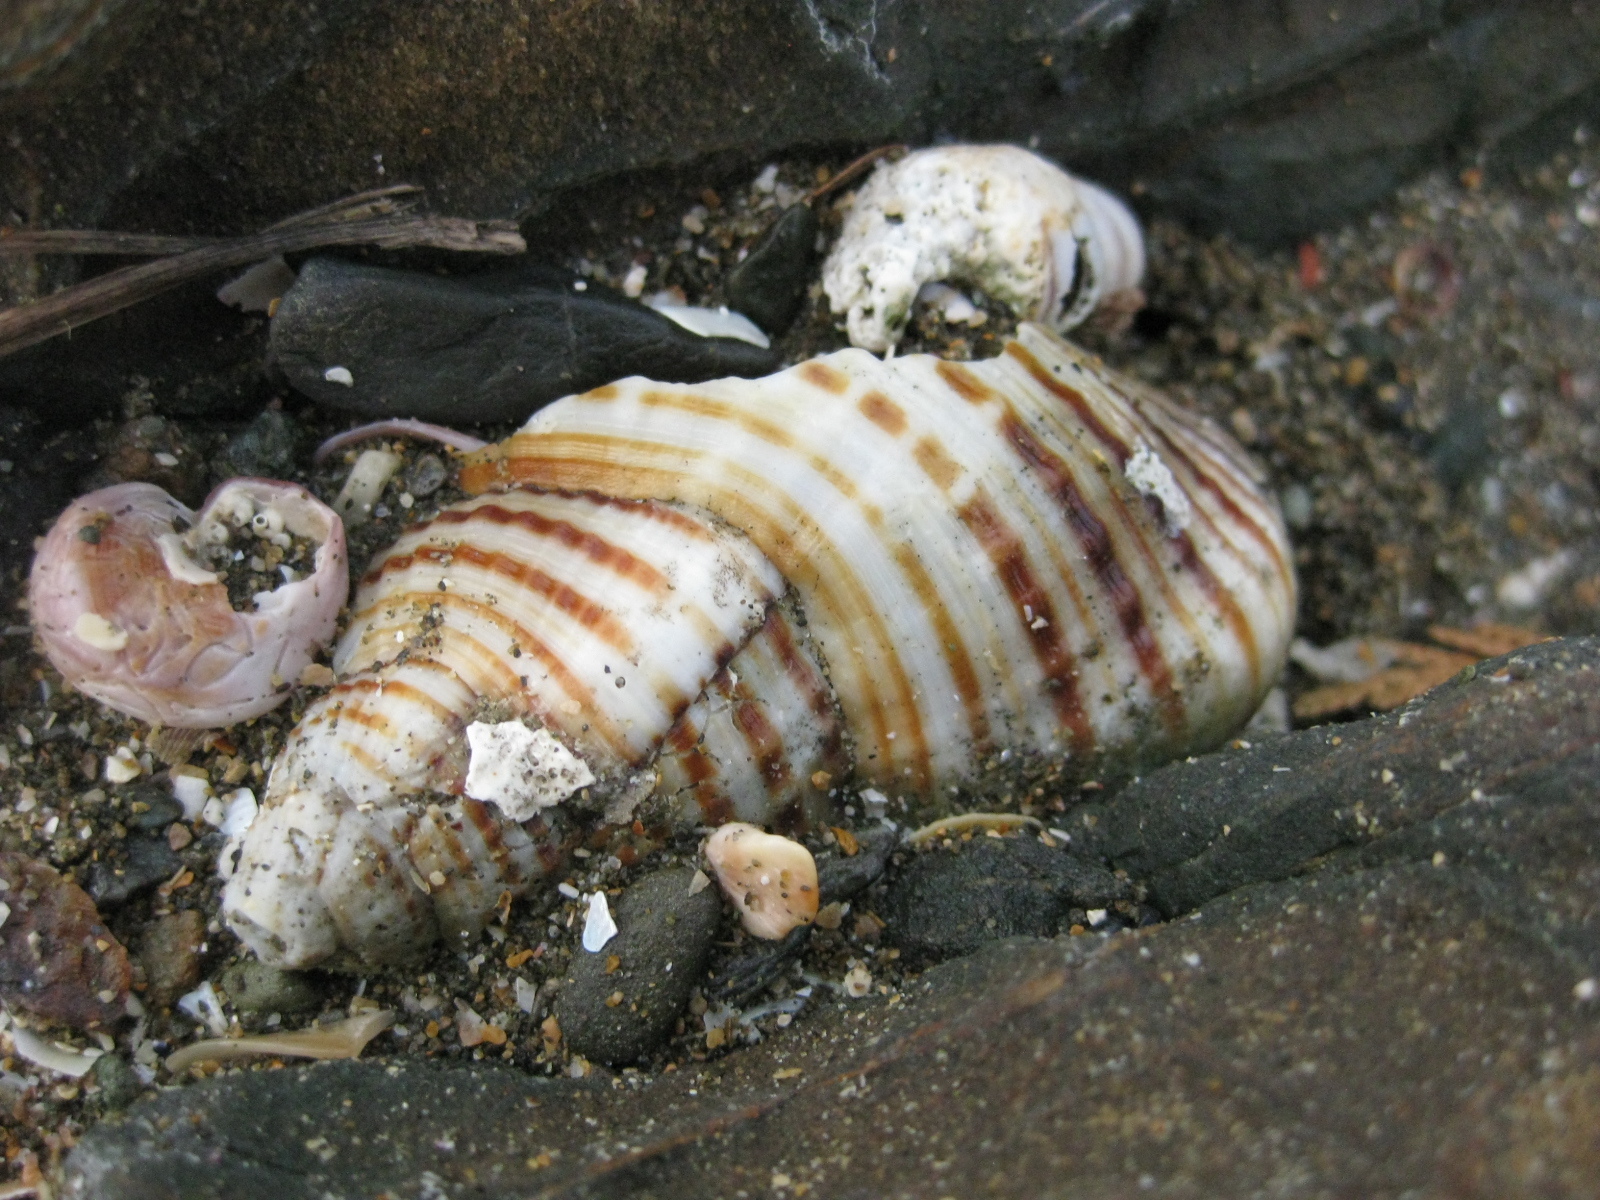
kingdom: Animalia
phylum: Mollusca
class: Gastropoda
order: Littorinimorpha
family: Cymatiidae
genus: Argobuccinum
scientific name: Argobuccinum pustulosum
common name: Pustular triton
